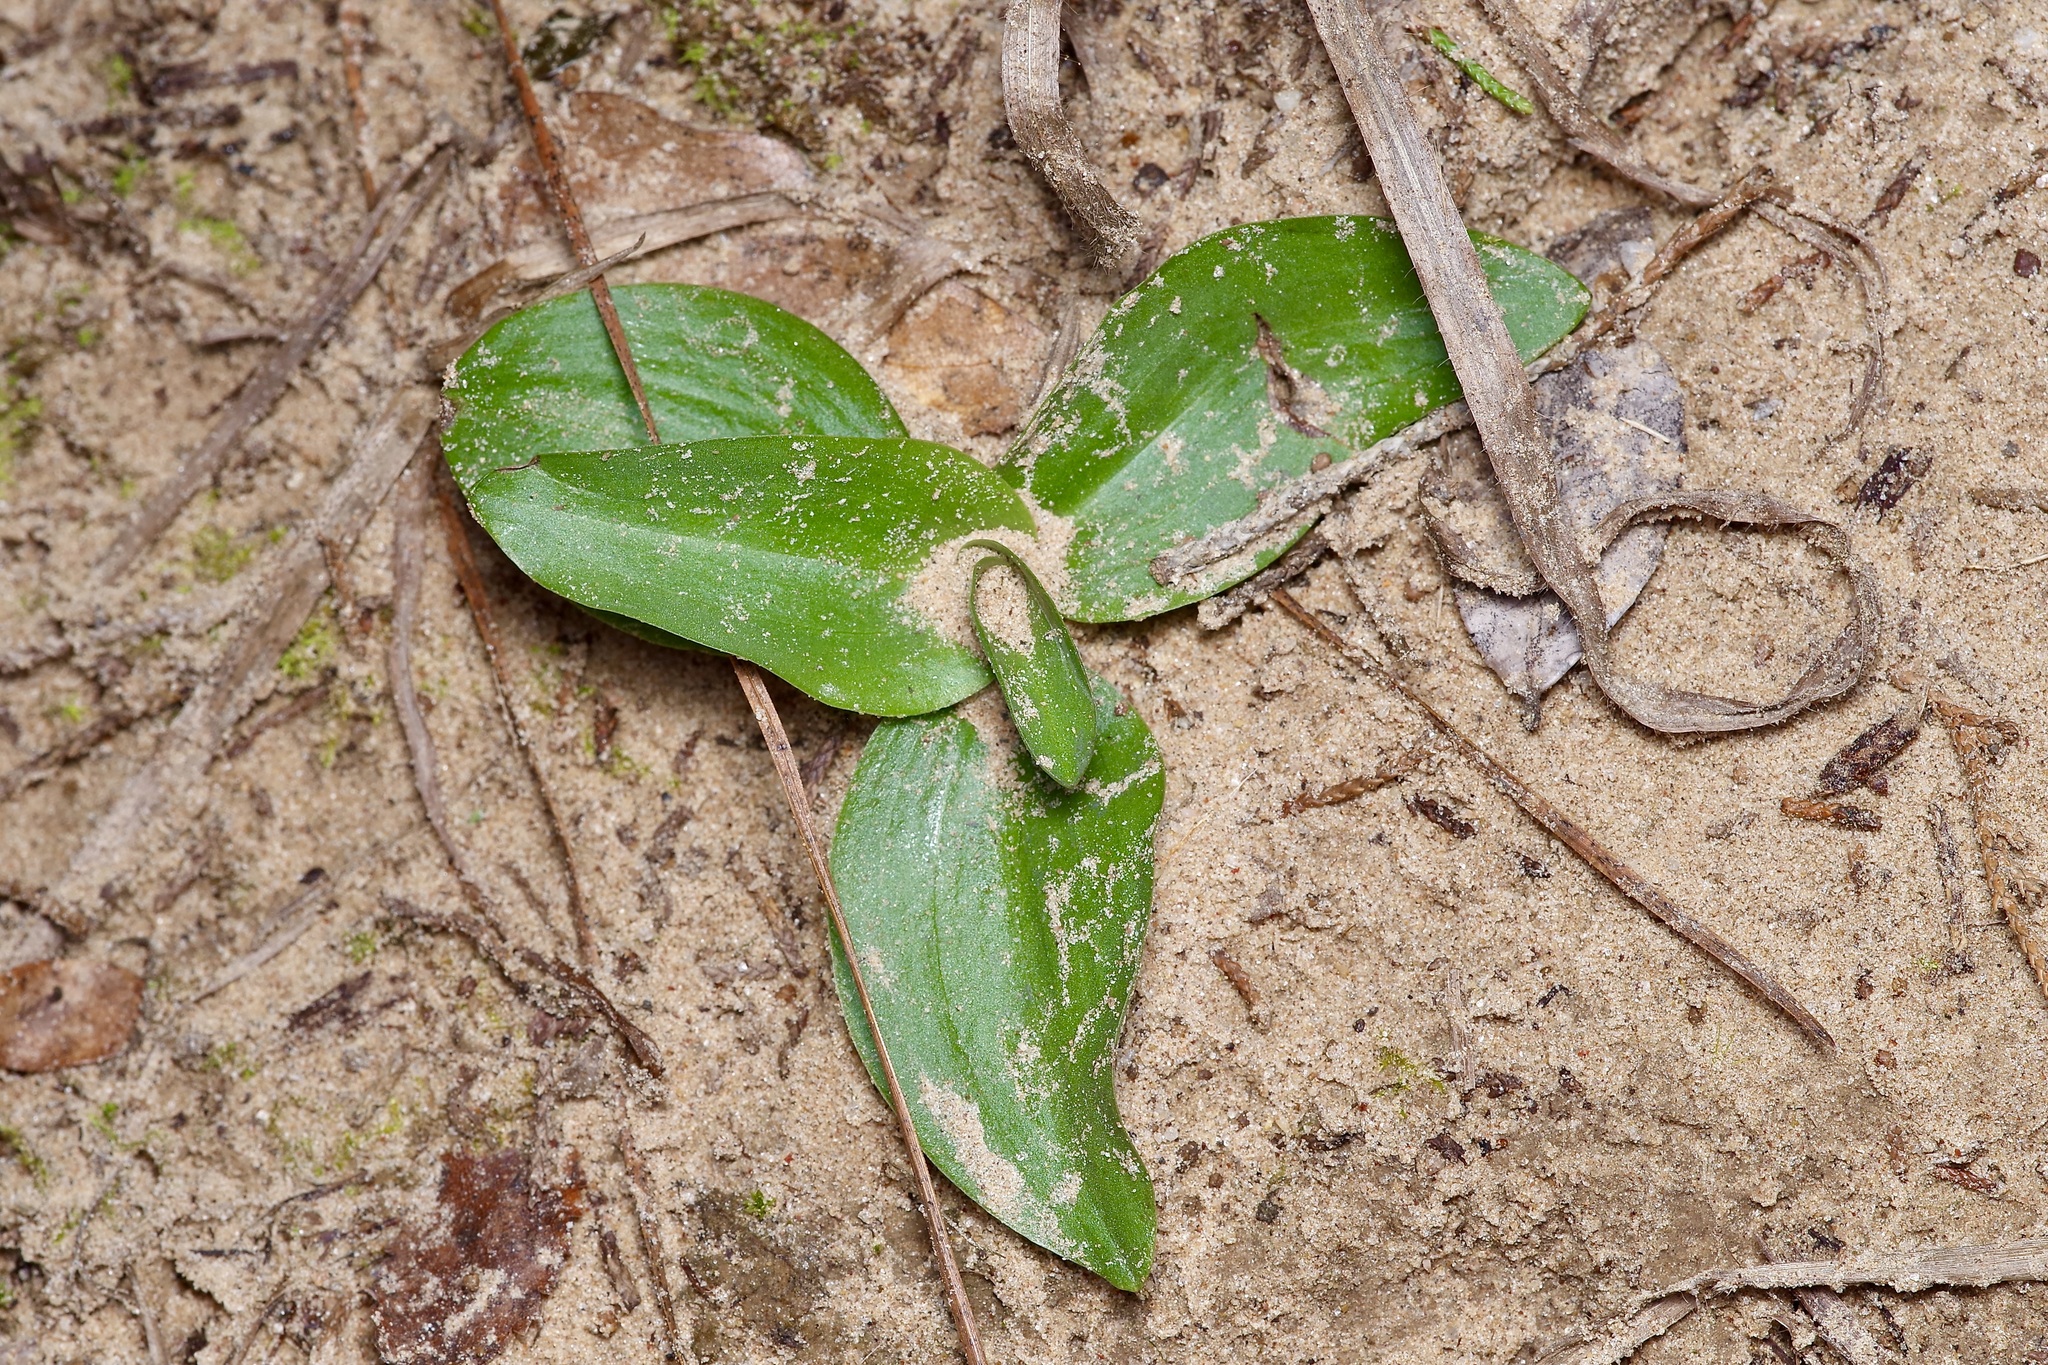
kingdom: Plantae
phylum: Tracheophyta
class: Liliopsida
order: Asparagales
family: Orchidaceae
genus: Spiranthes
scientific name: Spiranthes lacera
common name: Northern slender ladies'-tresses
